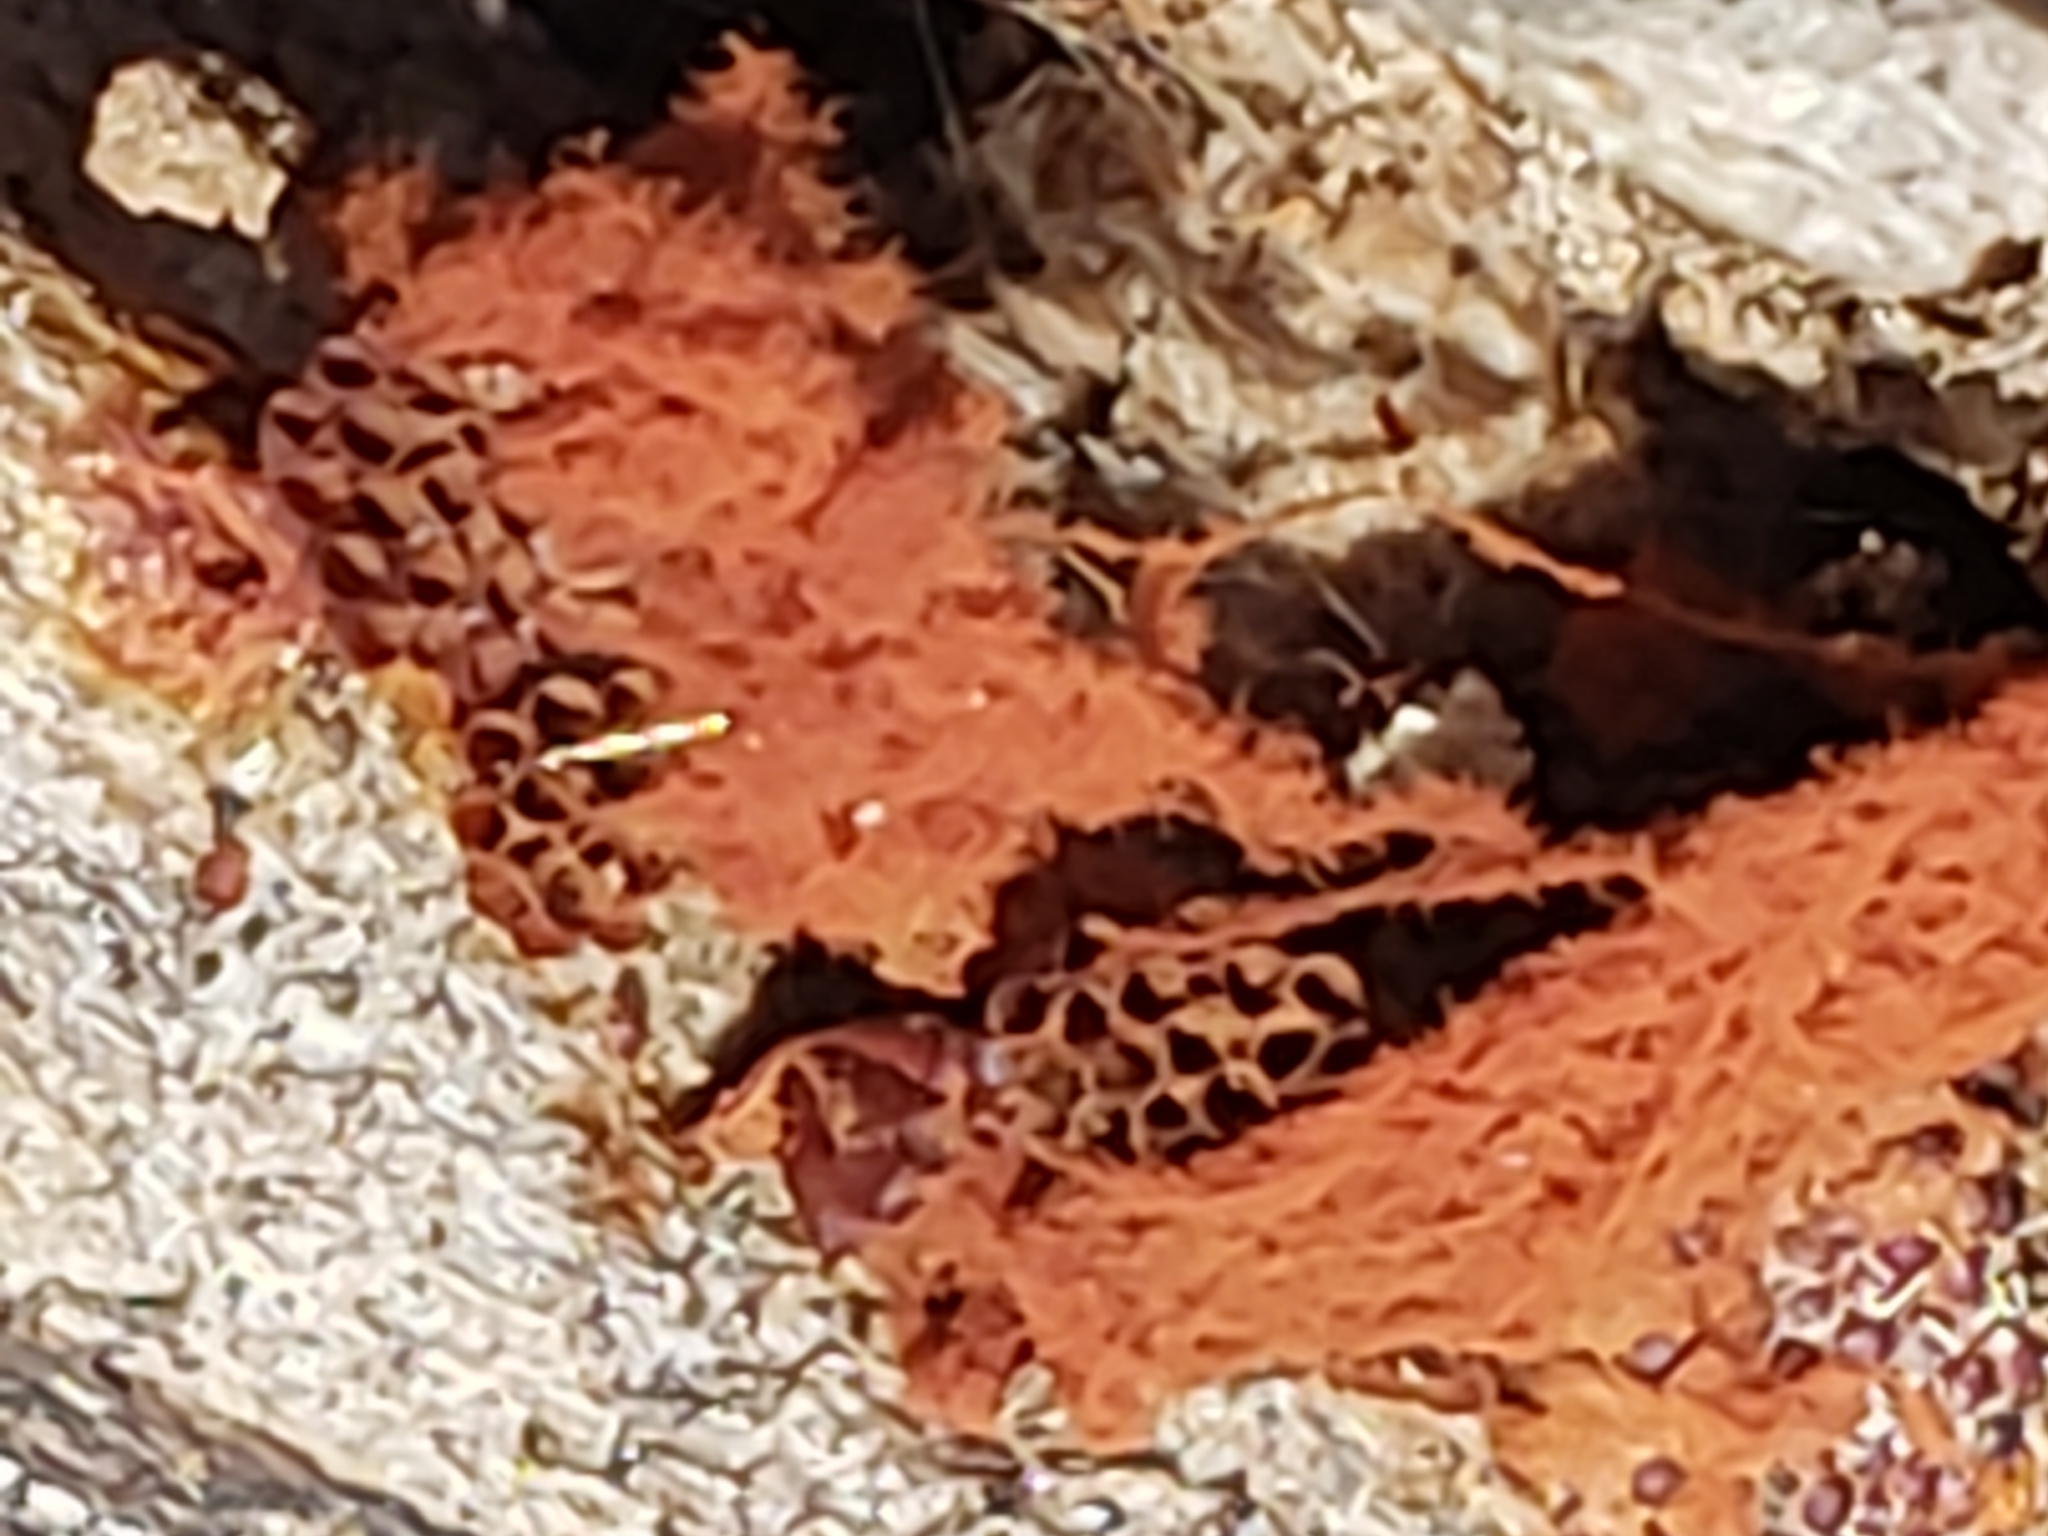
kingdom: Protozoa
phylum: Mycetozoa
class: Myxomycetes
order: Trichiales
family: Trichiaceae
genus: Metatrichia
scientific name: Metatrichia vesparia
